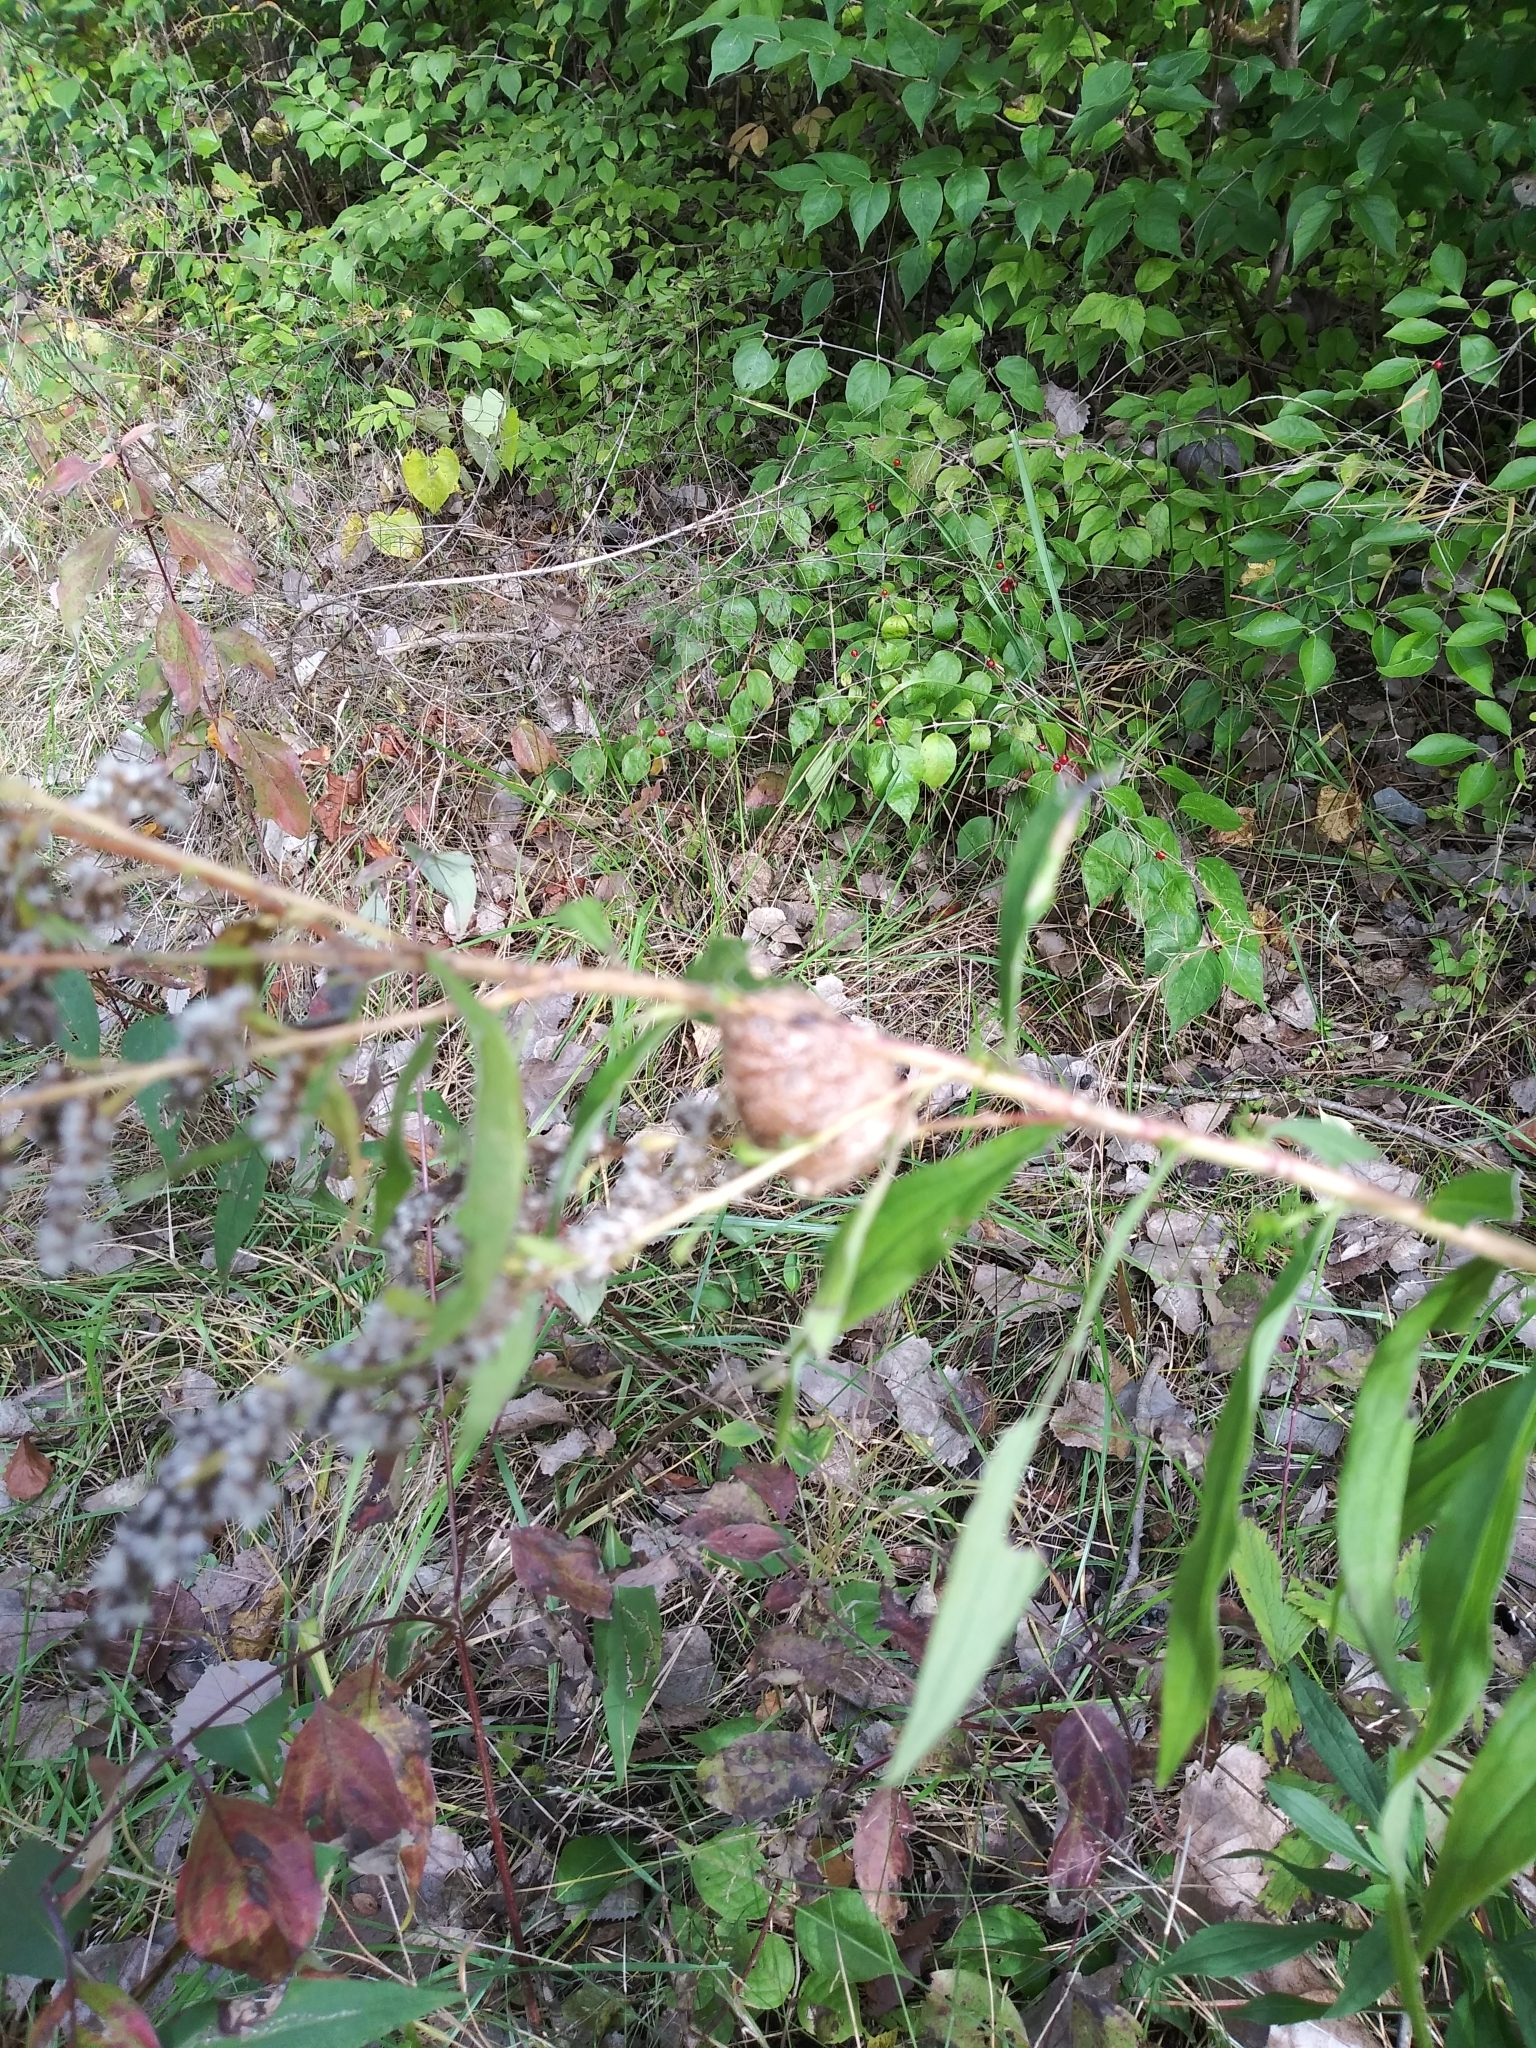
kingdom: Animalia
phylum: Arthropoda
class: Insecta
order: Mantodea
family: Mantidae
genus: Tenodera
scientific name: Tenodera sinensis
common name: Chinese mantis
